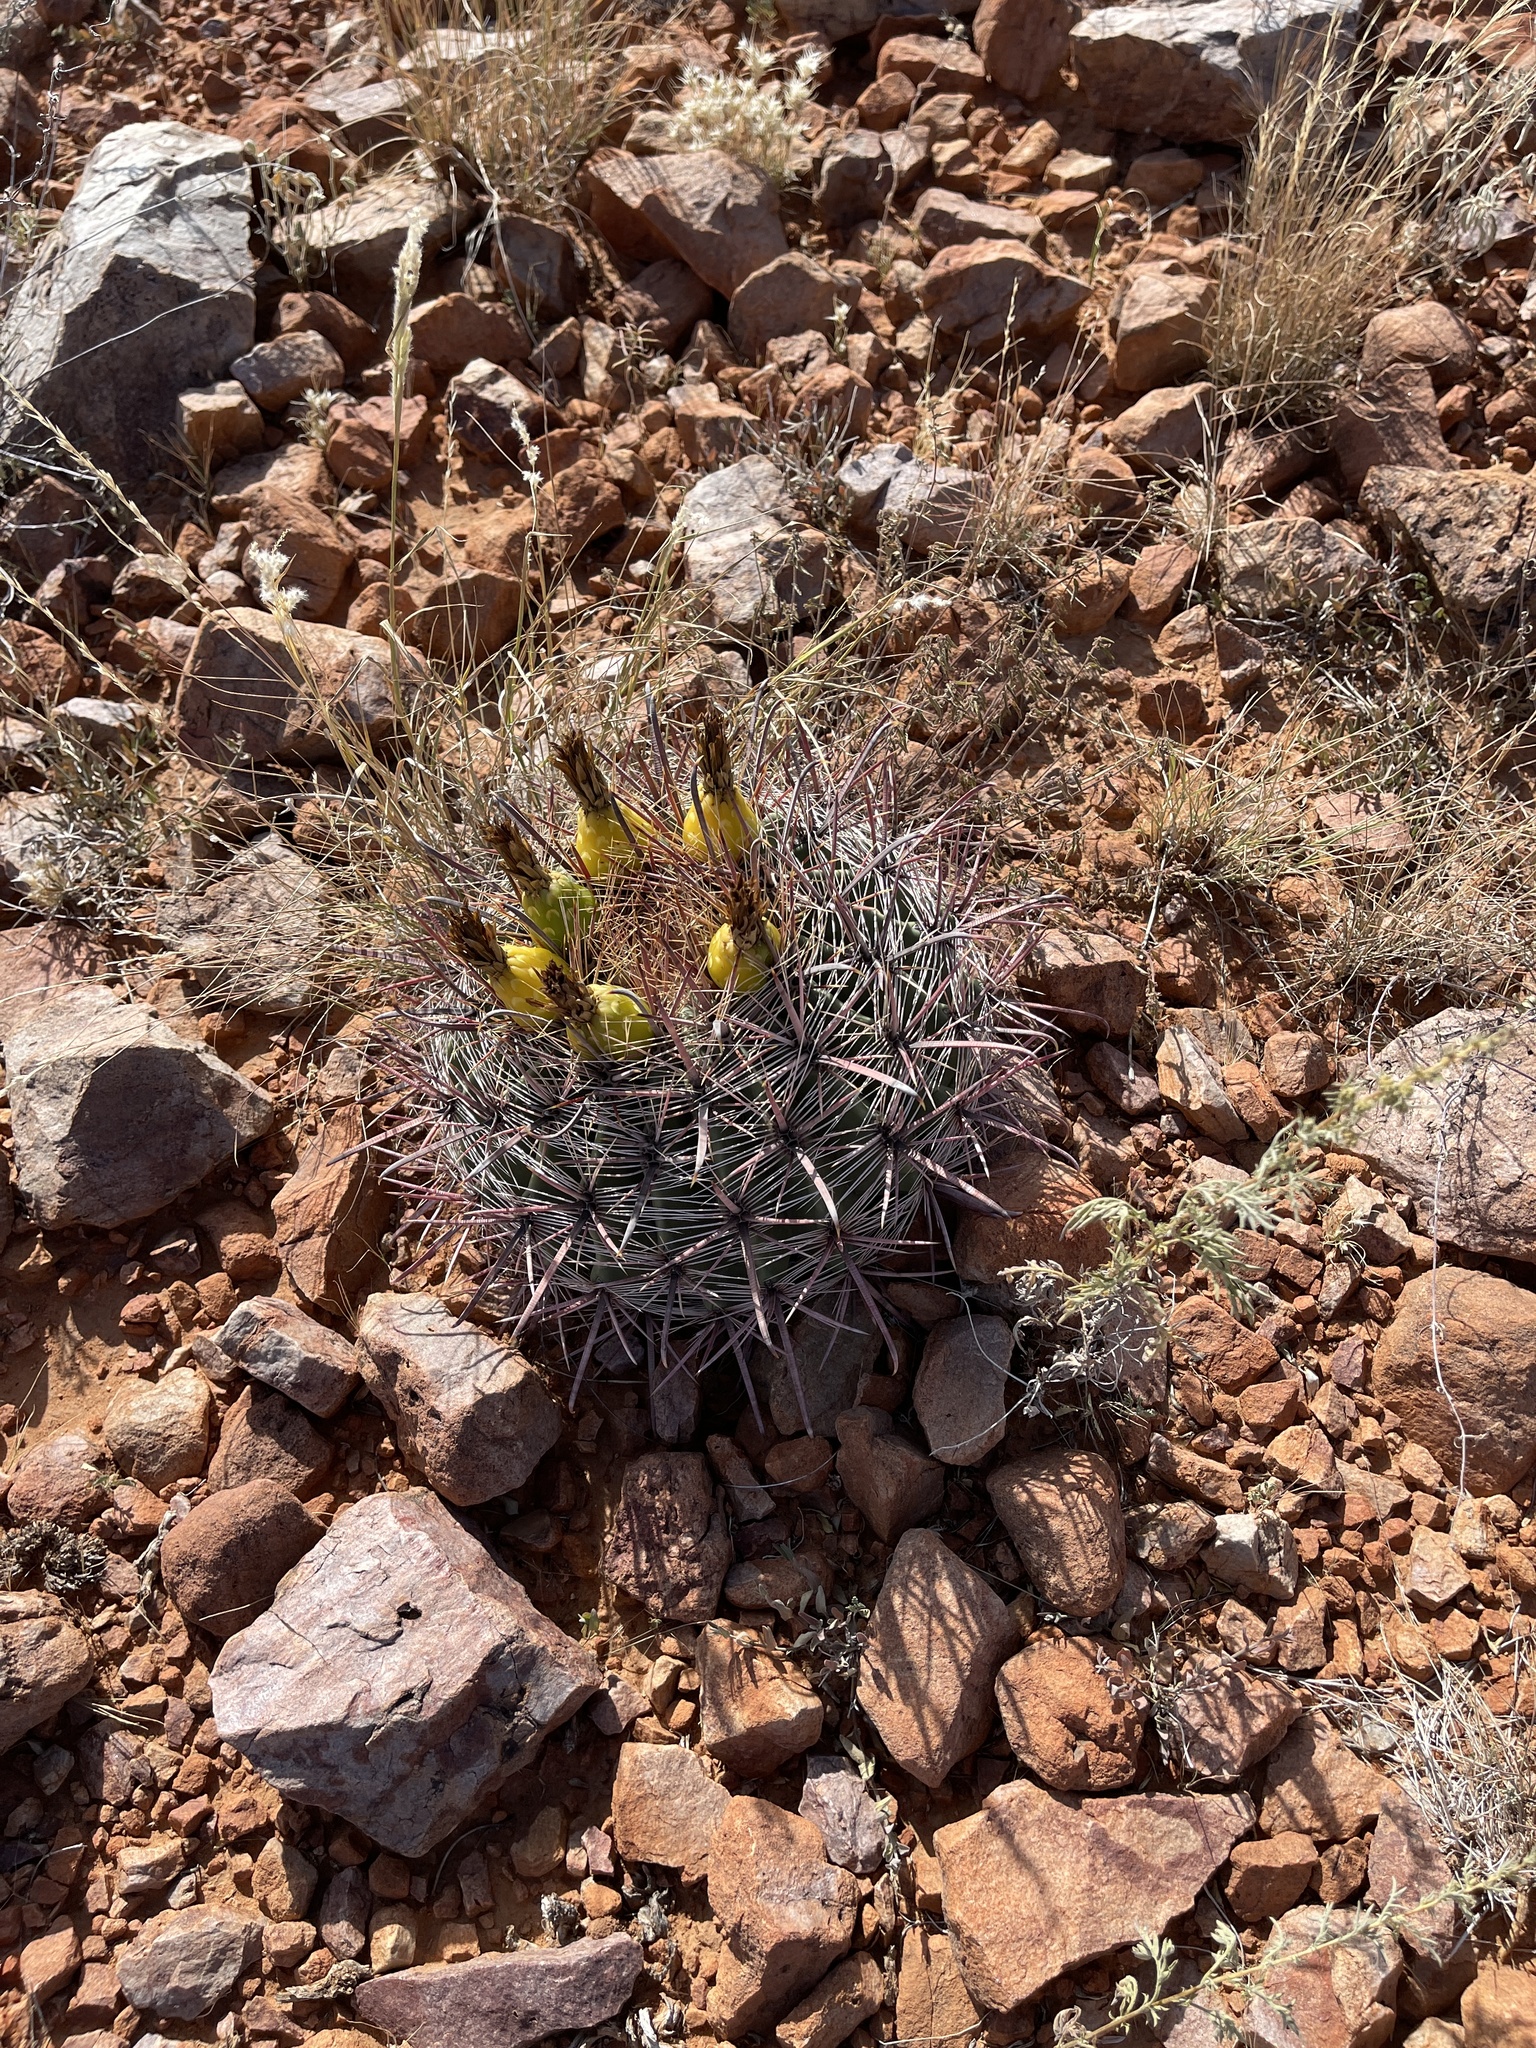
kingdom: Plantae
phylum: Tracheophyta
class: Magnoliopsida
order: Caryophyllales
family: Cactaceae
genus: Ferocactus
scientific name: Ferocactus wislizeni
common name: Candy barrel cactus
